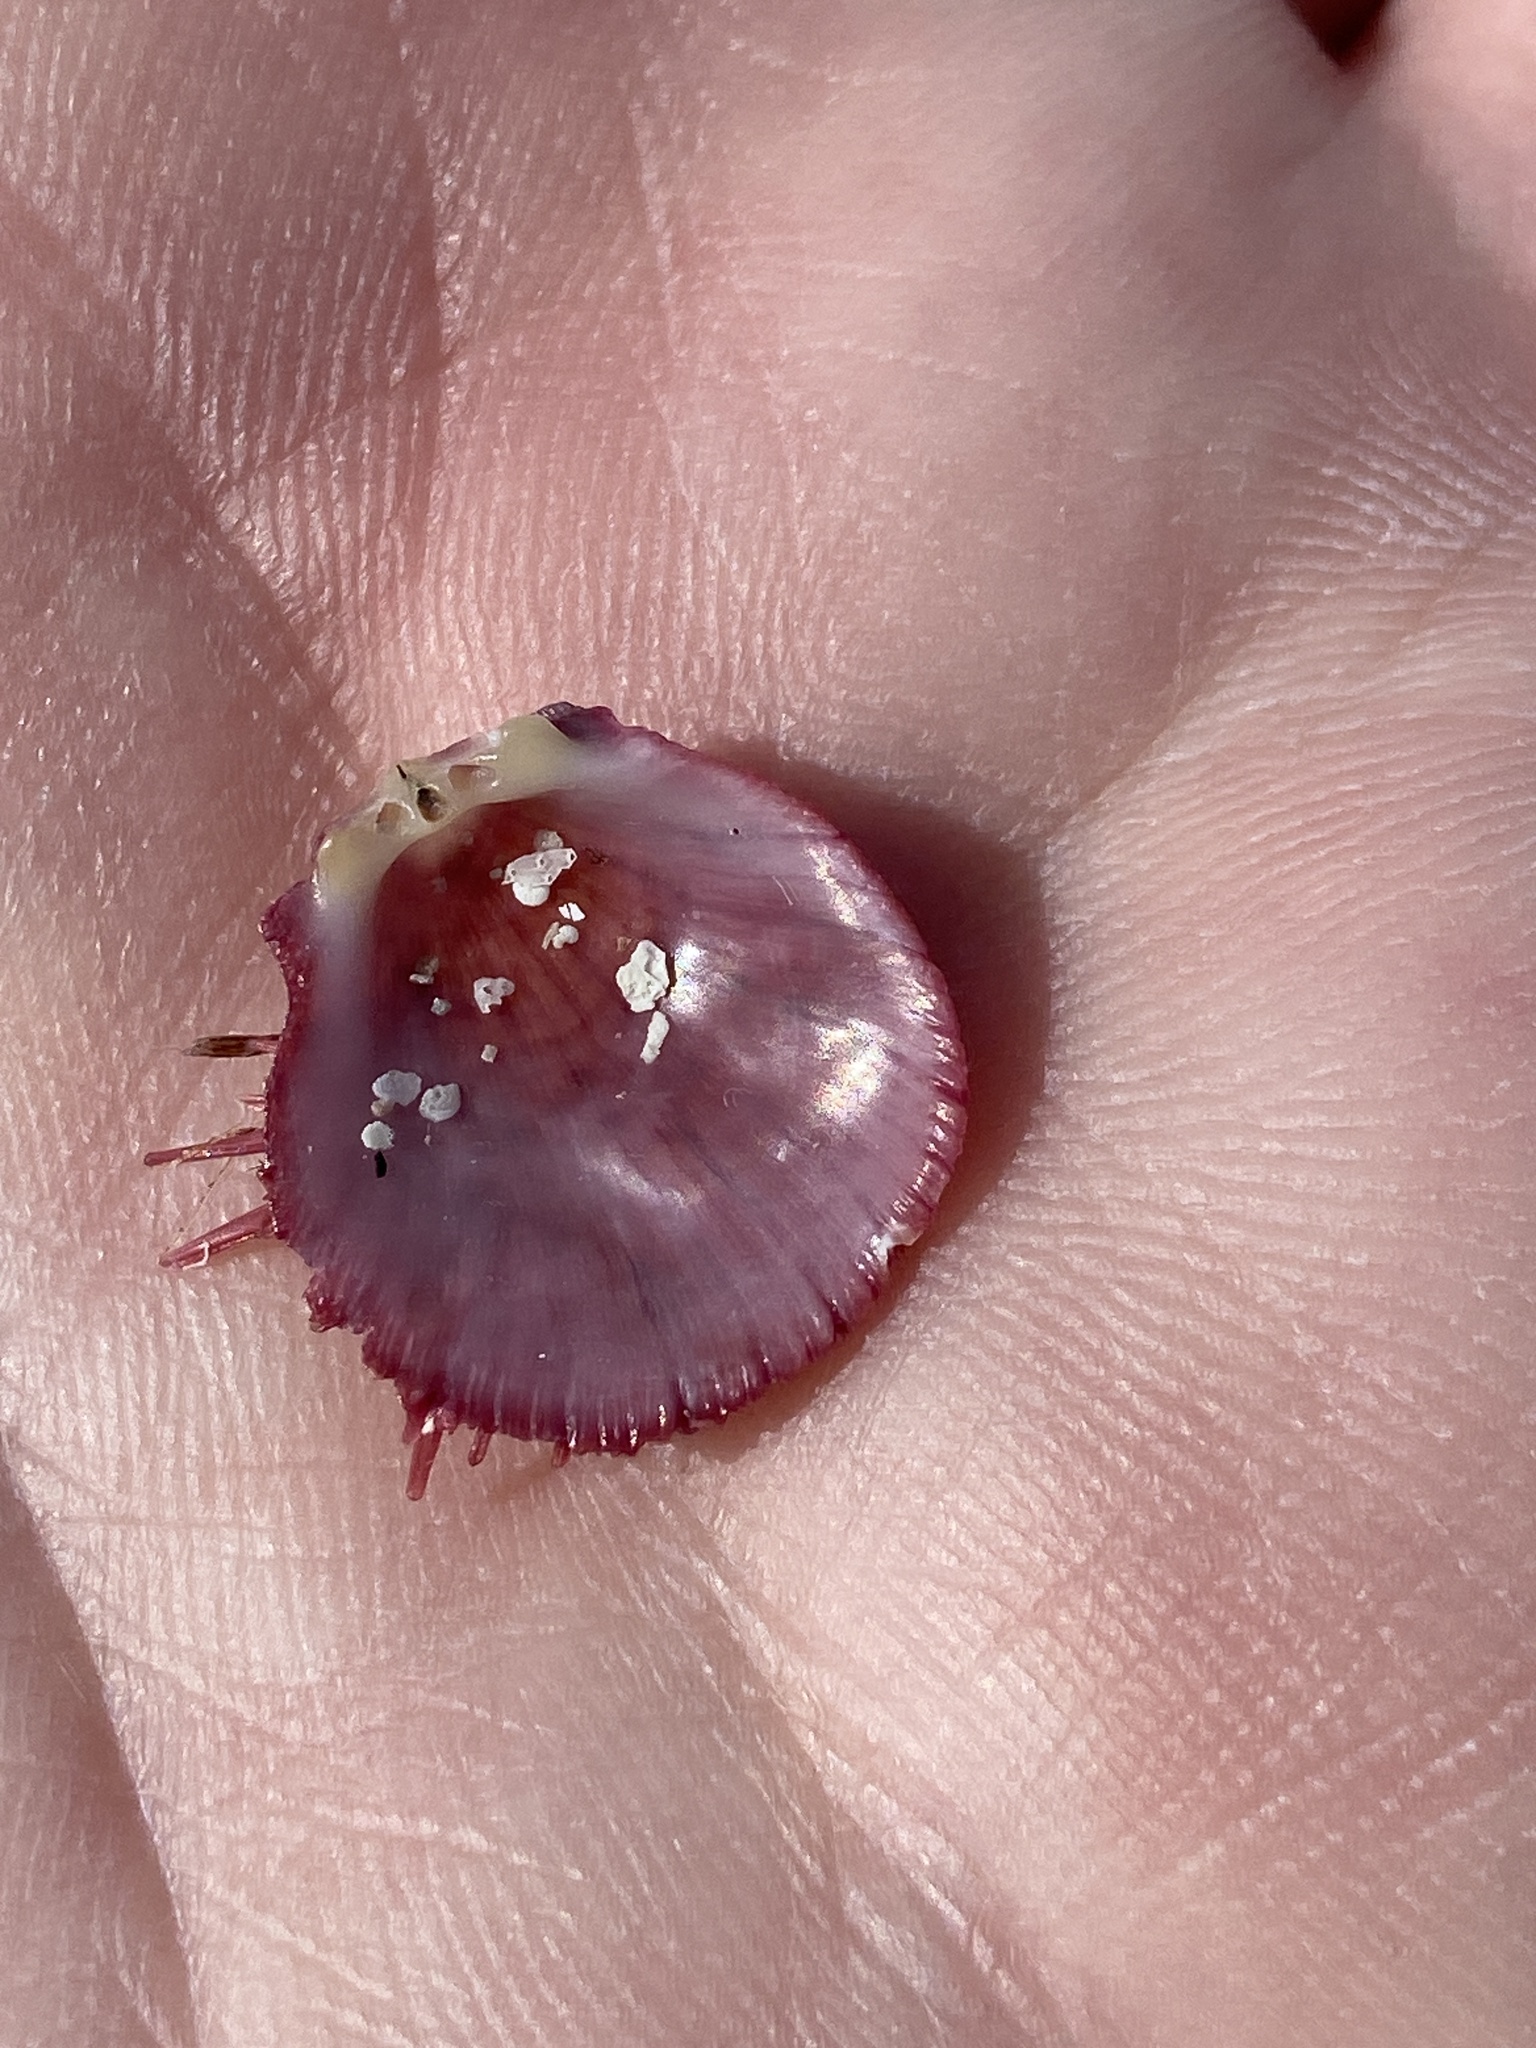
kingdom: Animalia
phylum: Mollusca
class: Bivalvia
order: Pectinida
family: Spondylidae
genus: Spondylus
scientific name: Spondylus gaederopus
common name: European thorny oyster
